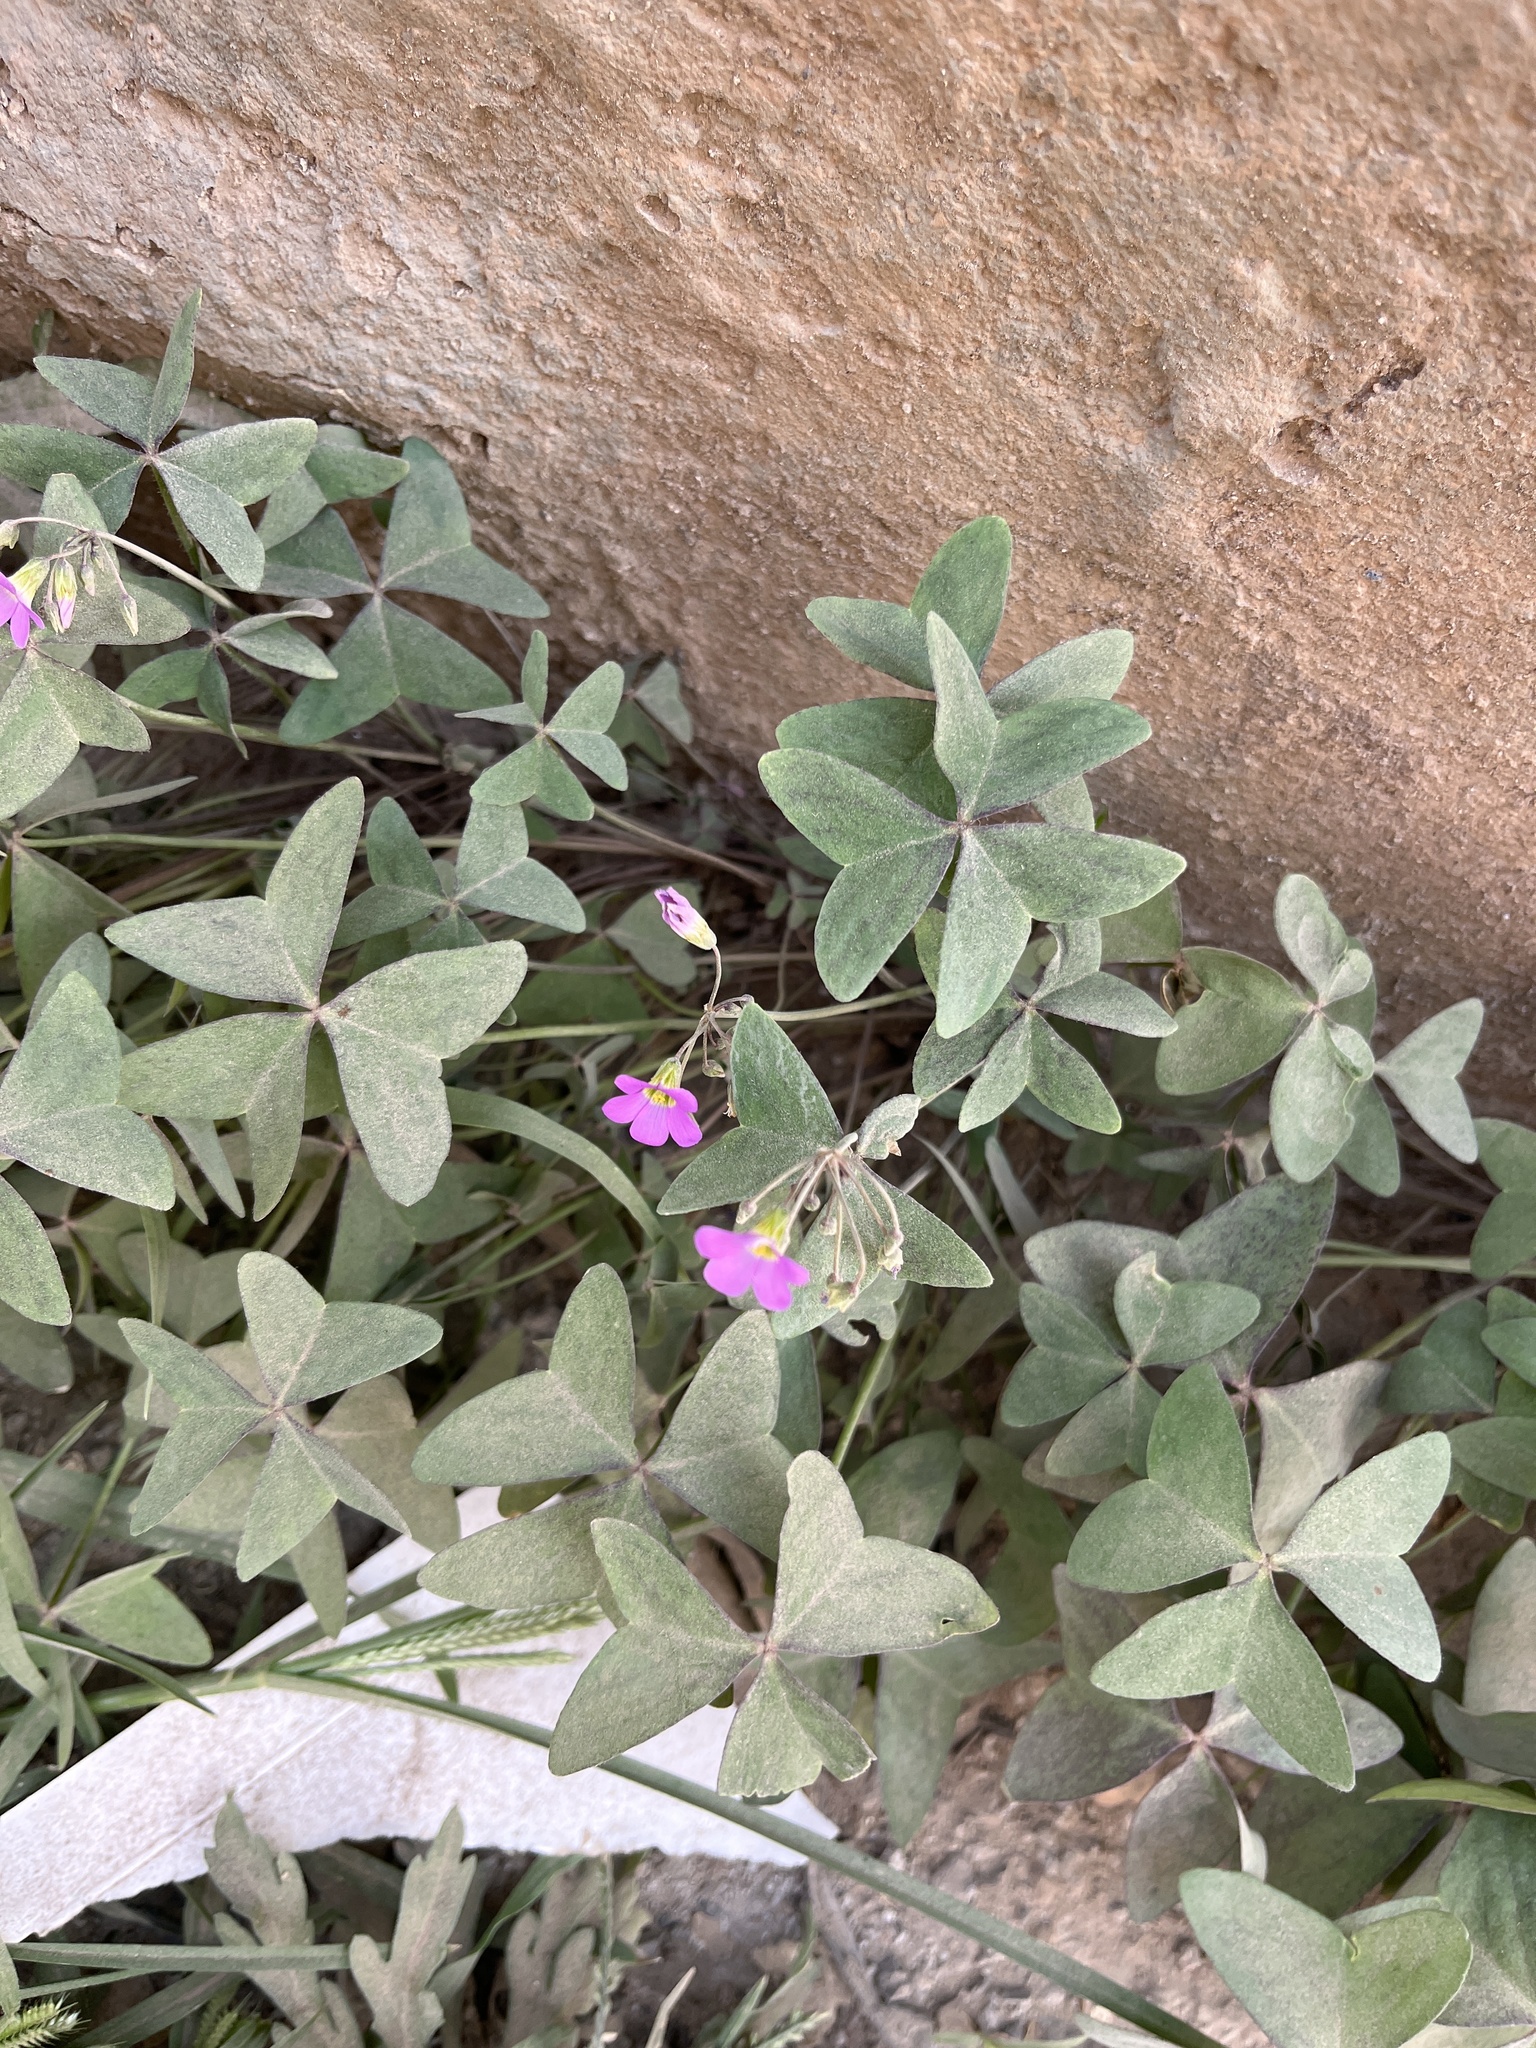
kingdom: Plantae
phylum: Tracheophyta
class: Magnoliopsida
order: Oxalidales
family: Oxalidaceae
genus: Oxalis
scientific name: Oxalis latifolia
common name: Garden pink-sorrel
